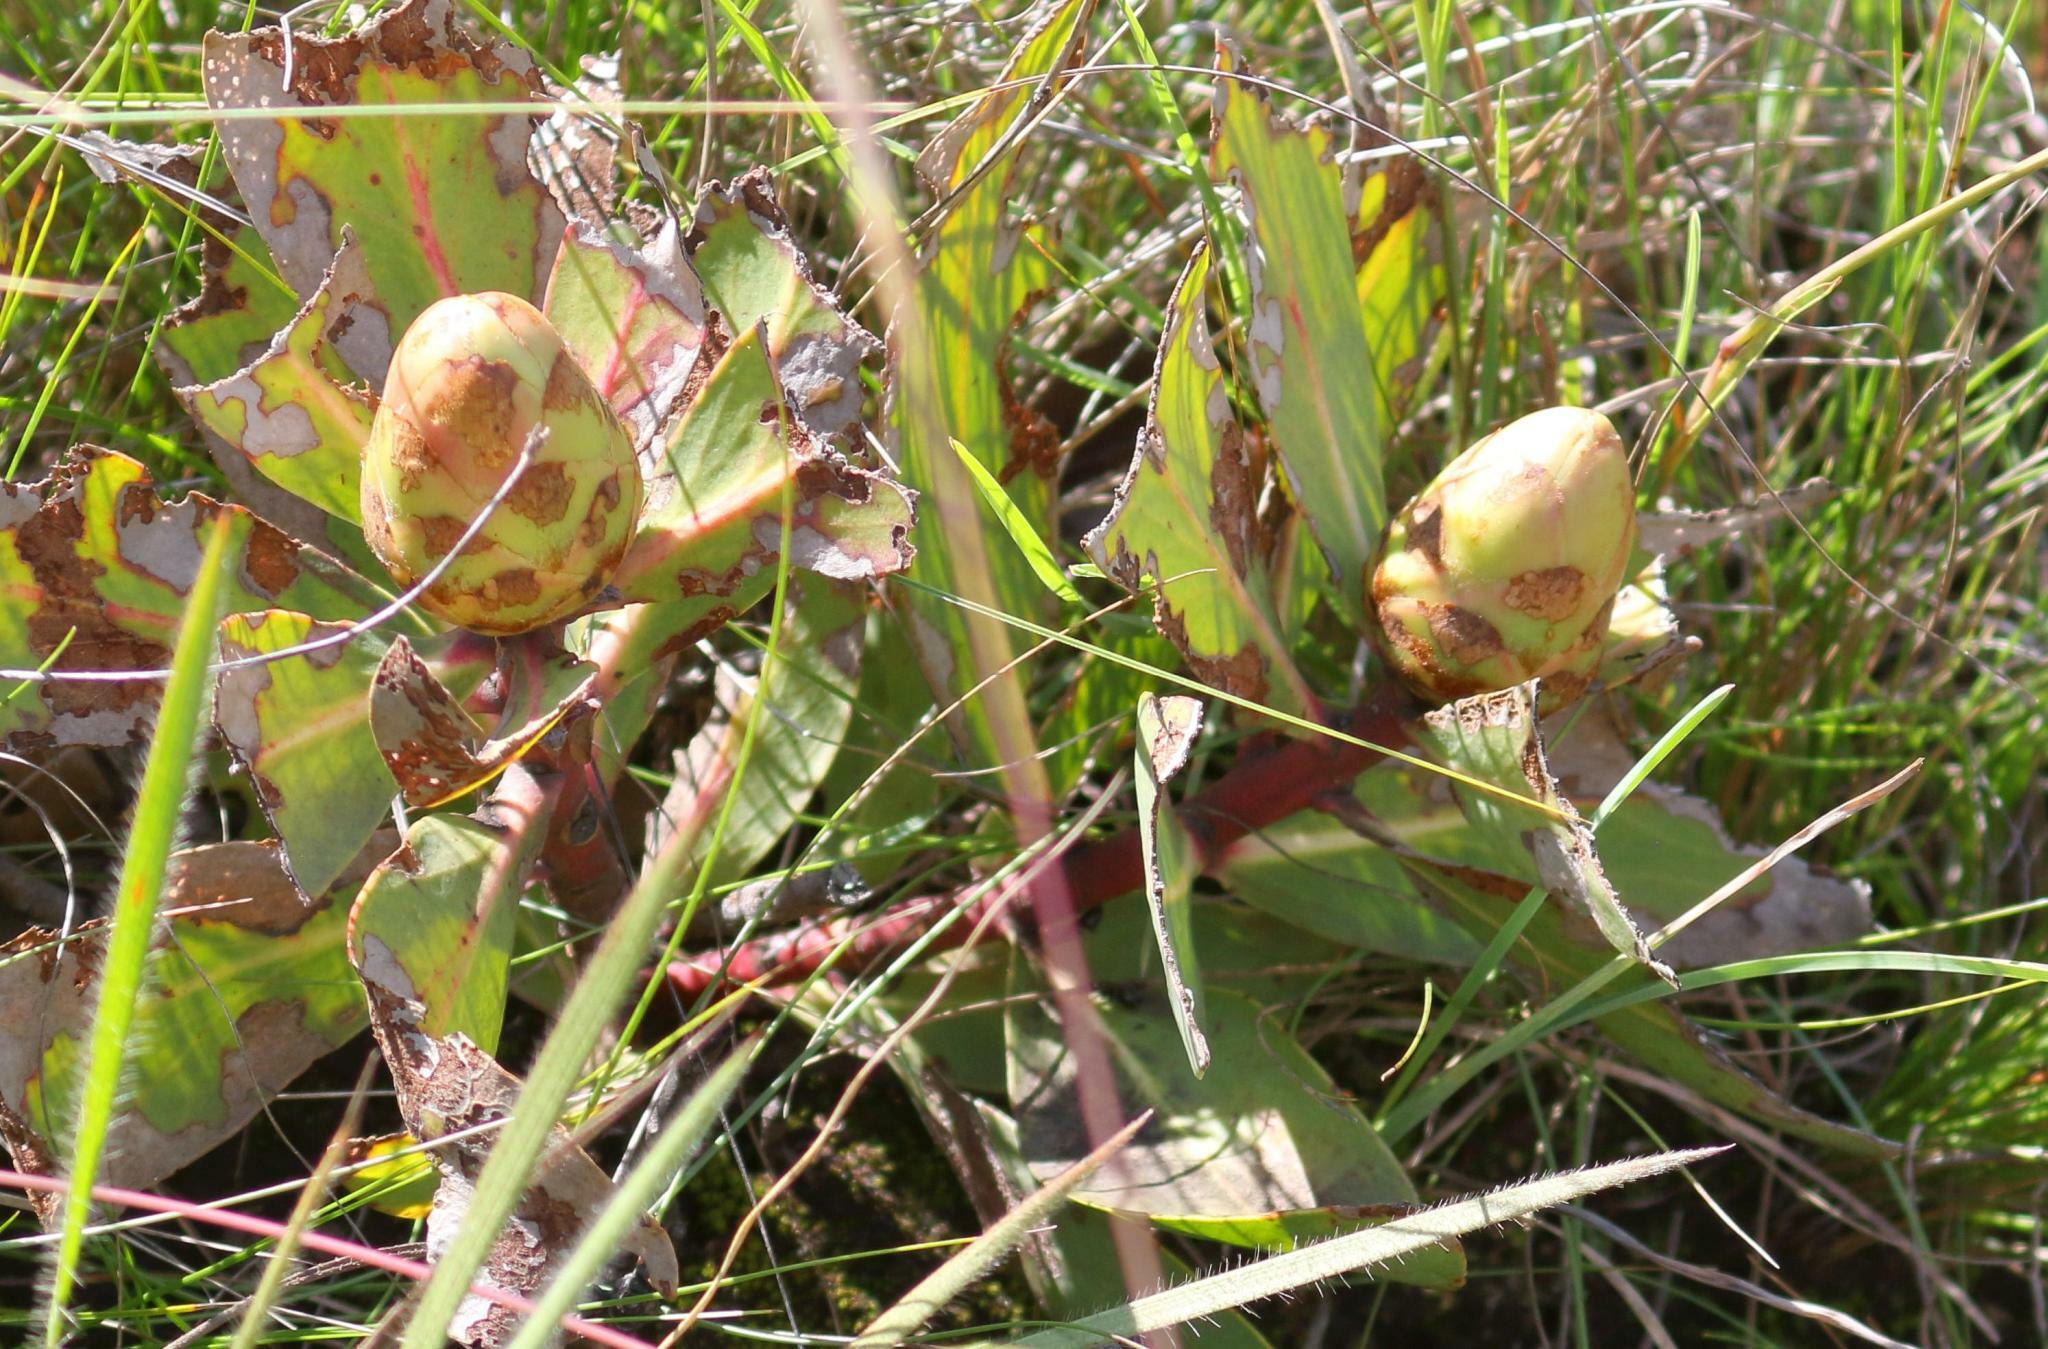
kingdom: Plantae
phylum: Tracheophyta
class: Magnoliopsida
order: Proteales
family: Proteaceae
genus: Protea
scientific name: Protea dracomontana
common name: Drakensberg dwarf sugarbush
